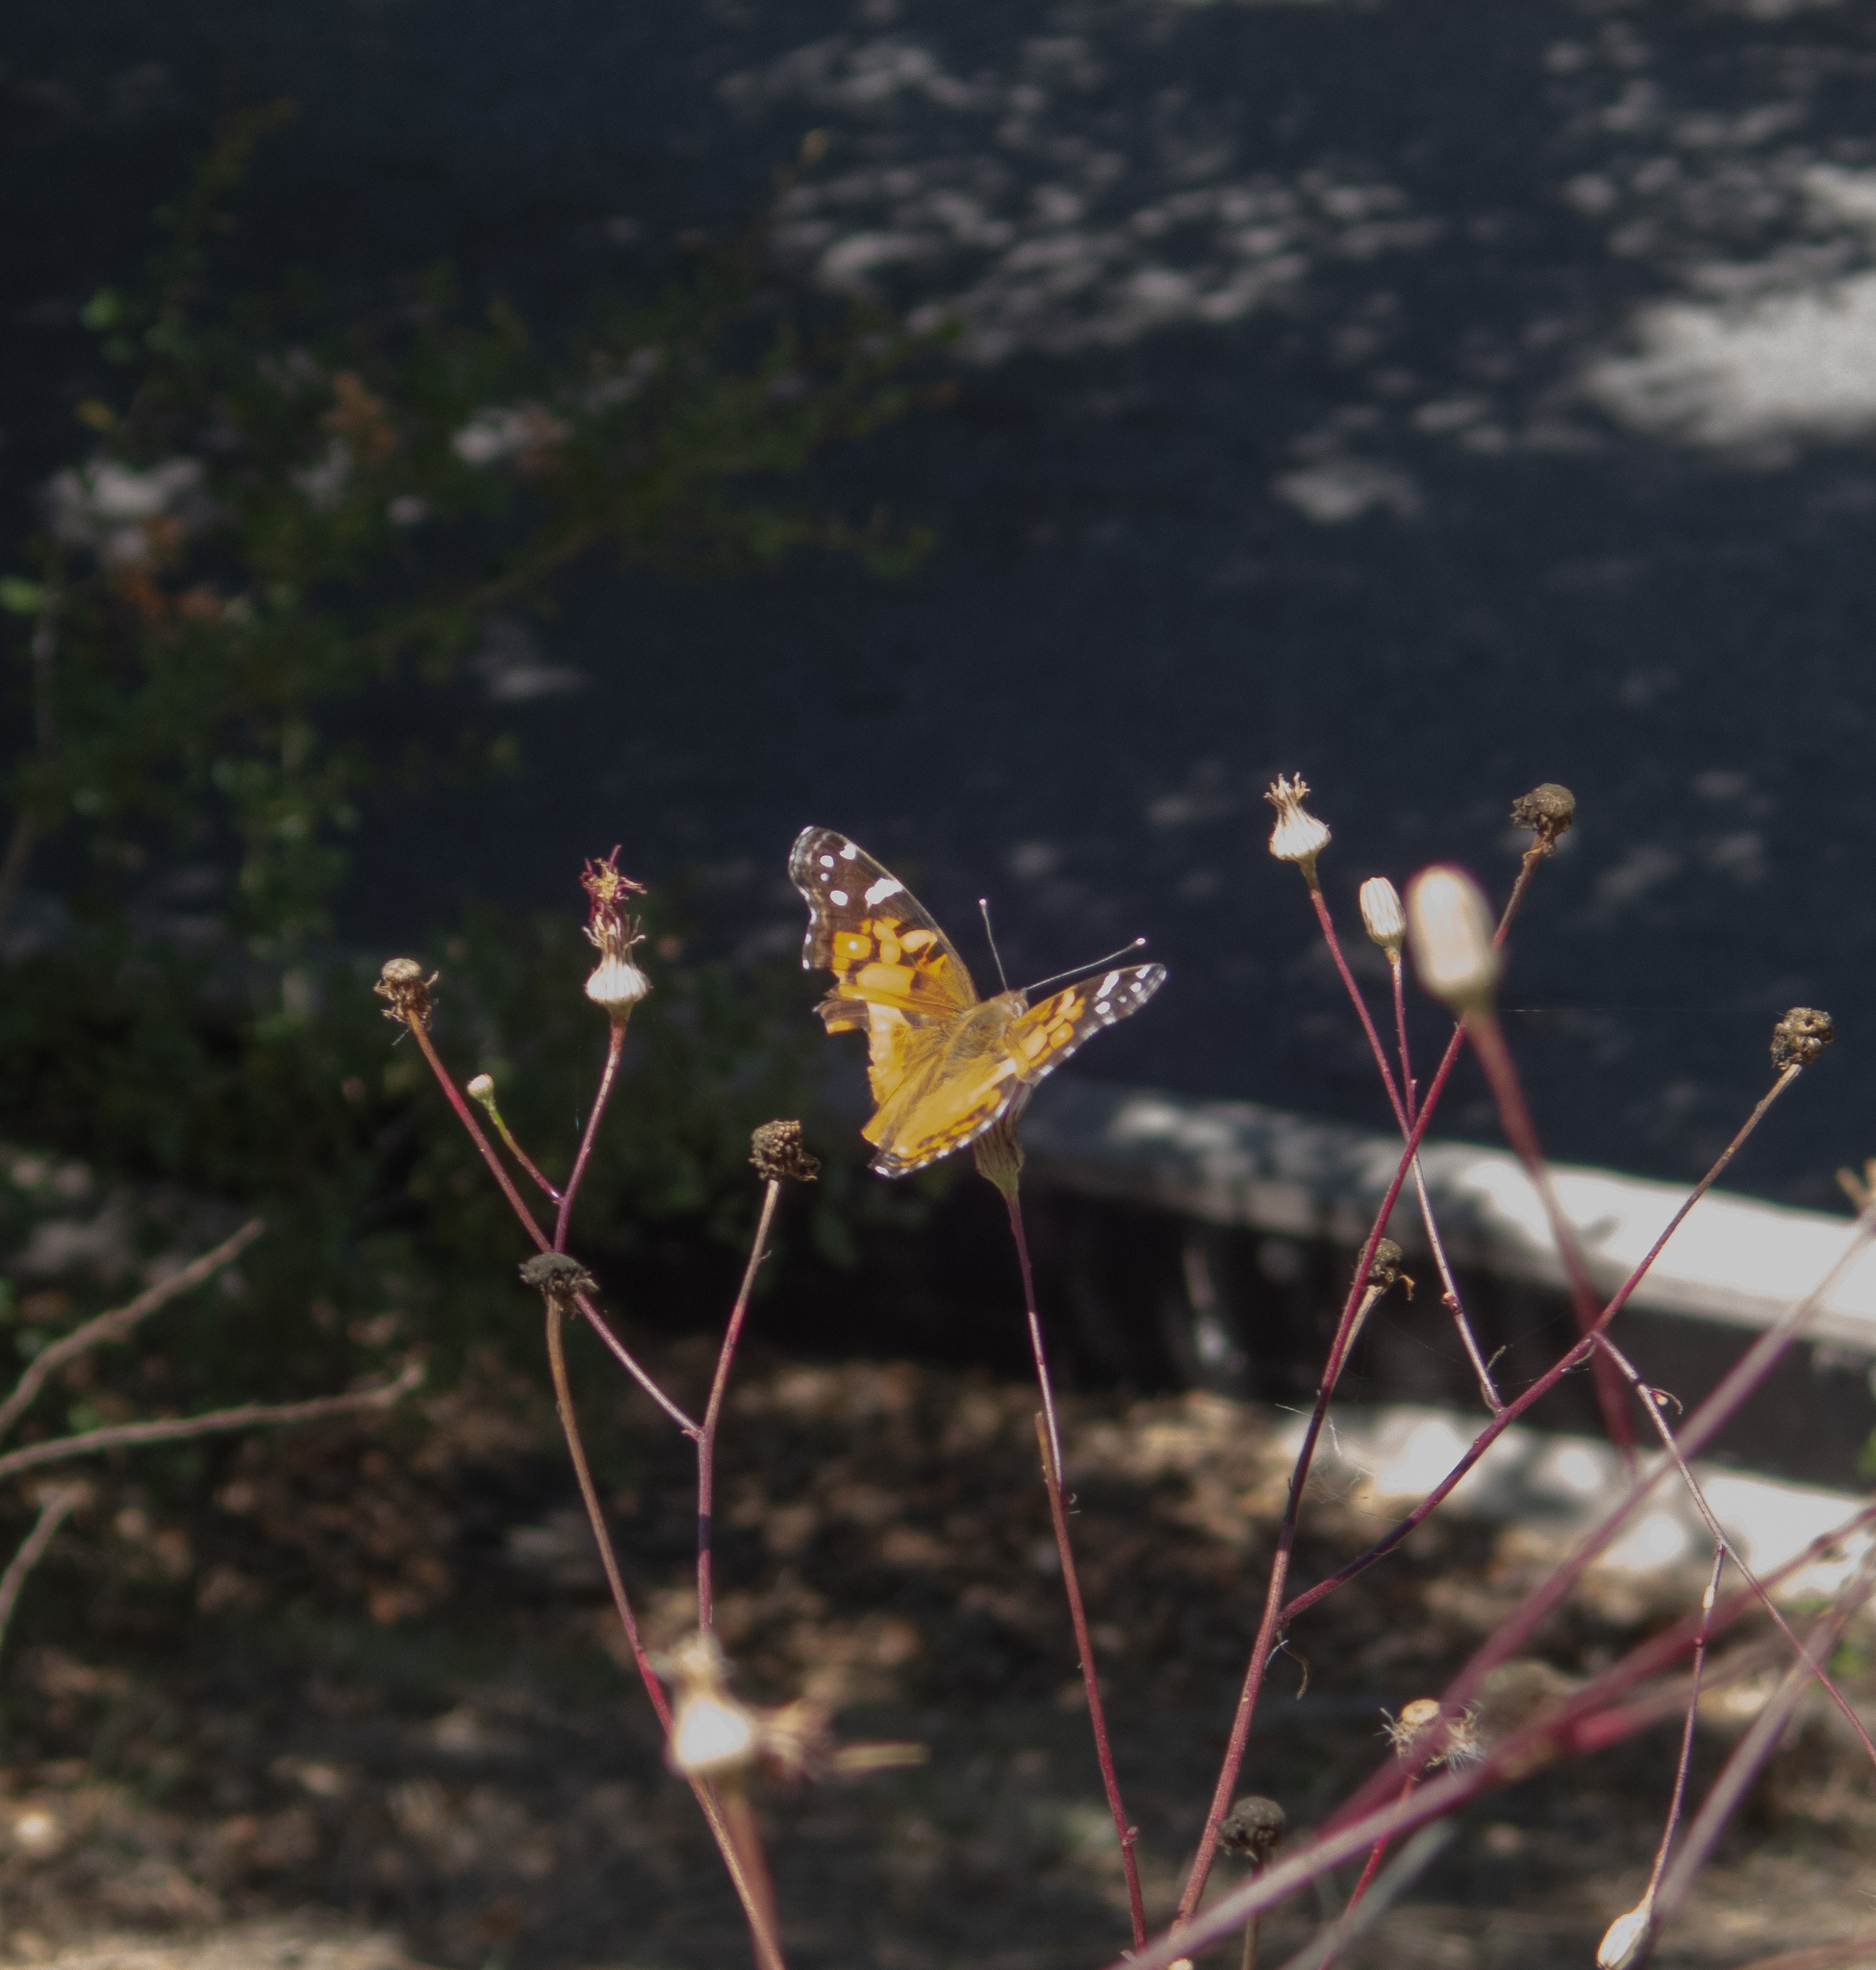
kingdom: Animalia
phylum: Arthropoda
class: Insecta
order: Lepidoptera
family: Nymphalidae
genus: Vanessa
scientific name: Vanessa virginiensis
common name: American lady
